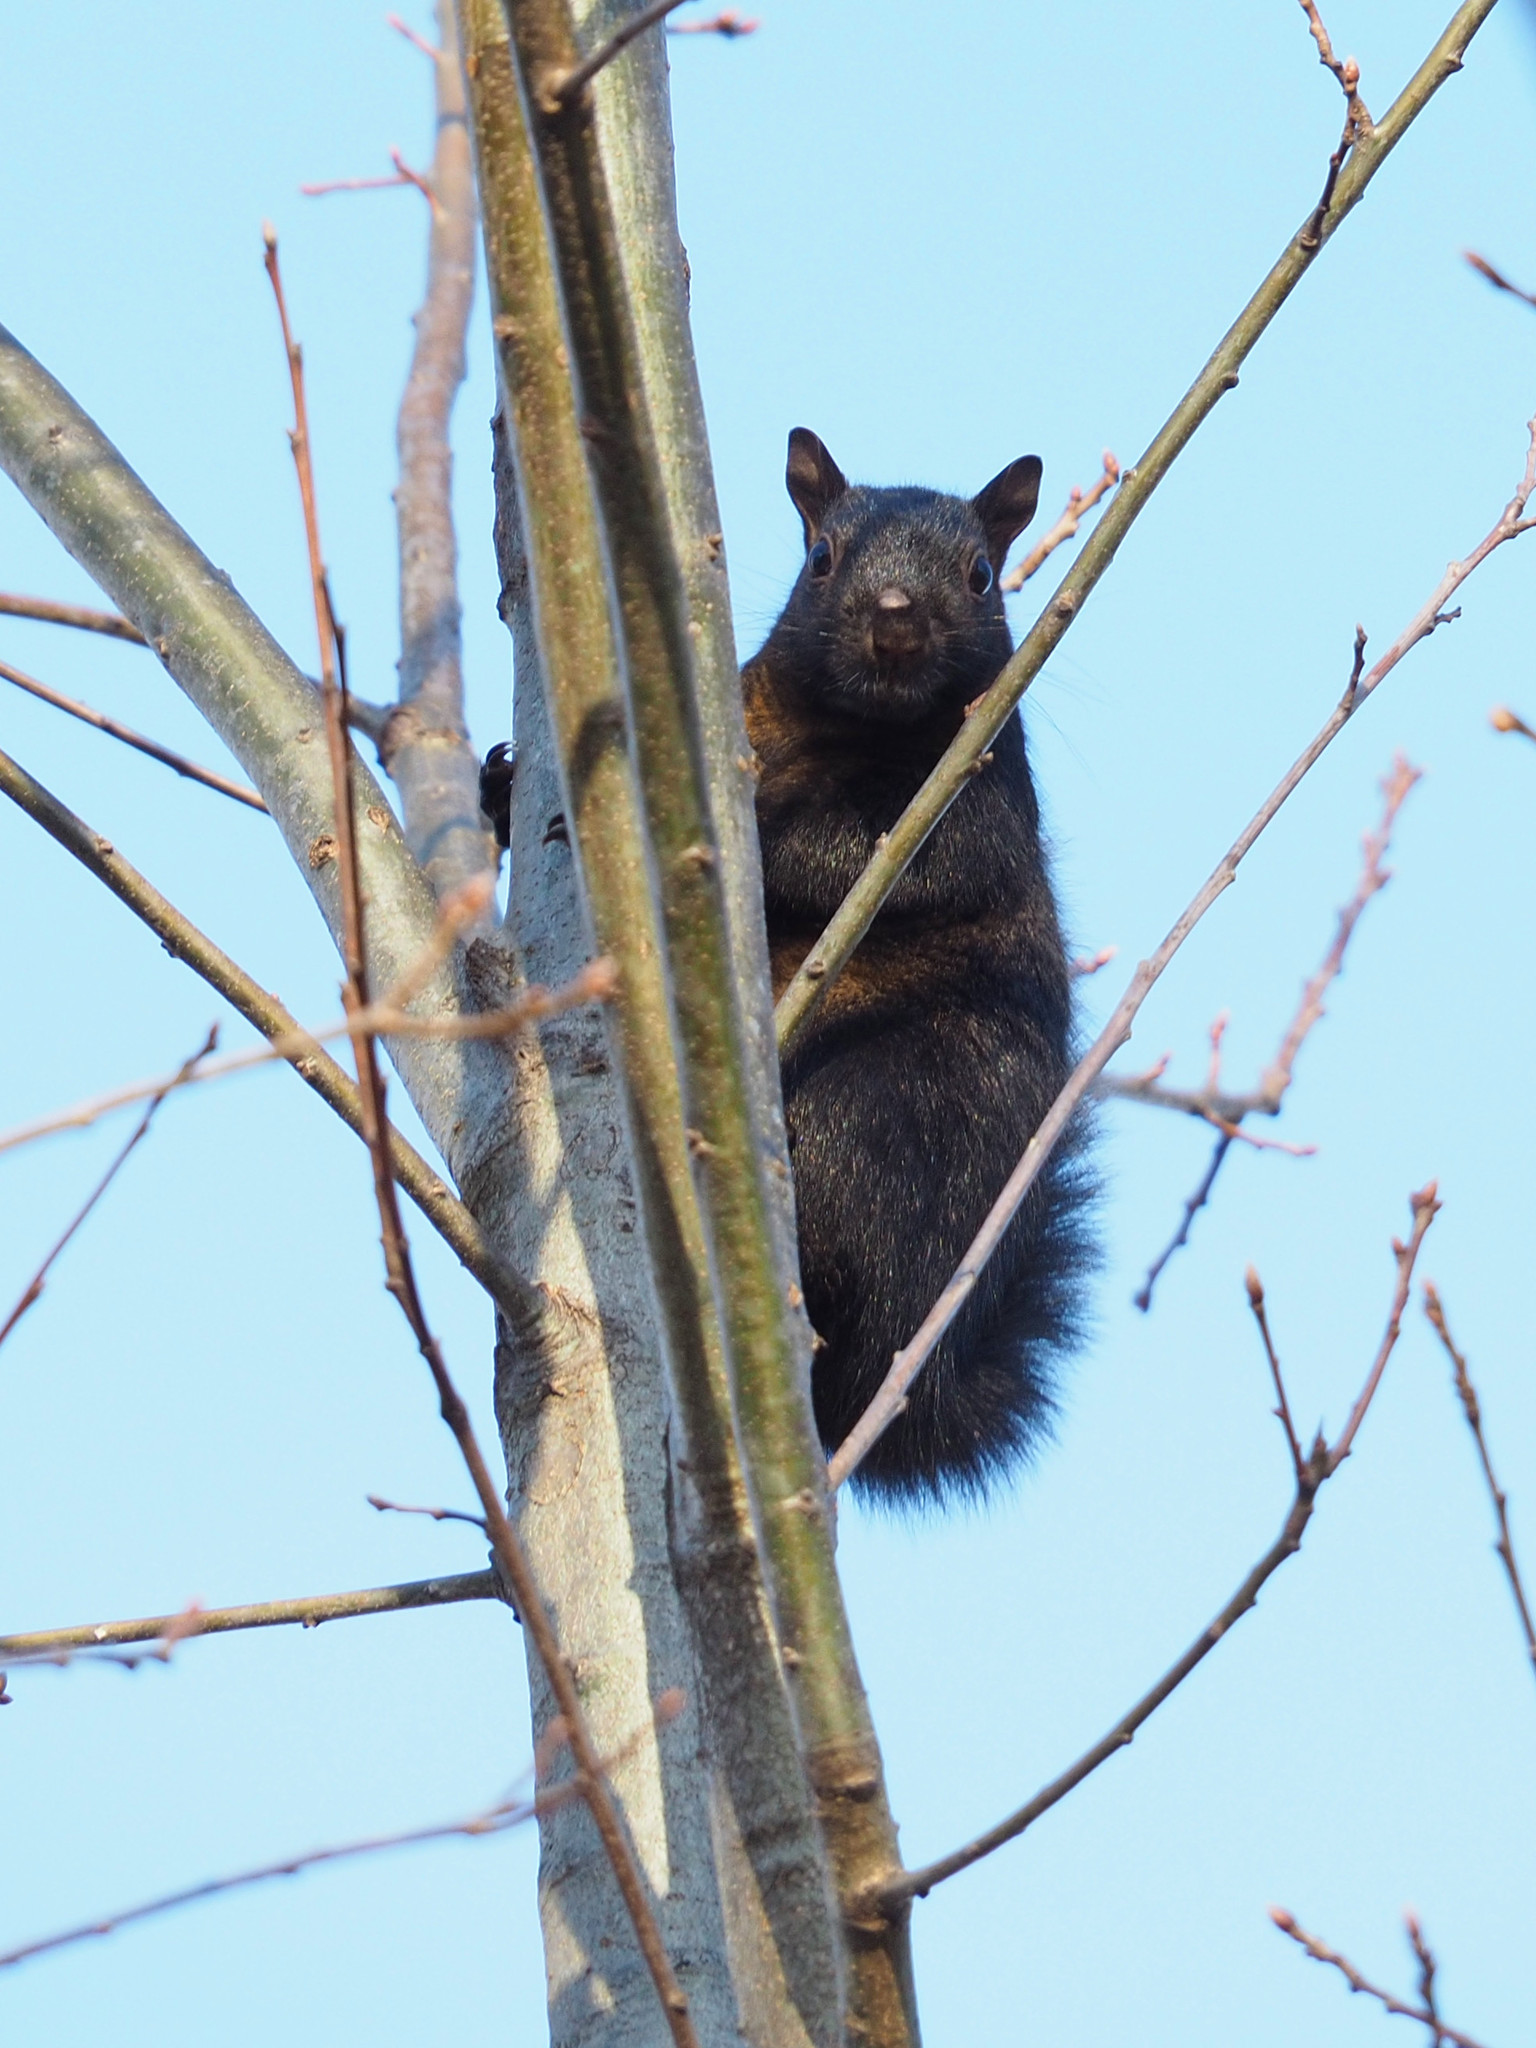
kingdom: Animalia
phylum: Chordata
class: Mammalia
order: Rodentia
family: Sciuridae
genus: Sciurus
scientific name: Sciurus carolinensis
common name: Eastern gray squirrel
